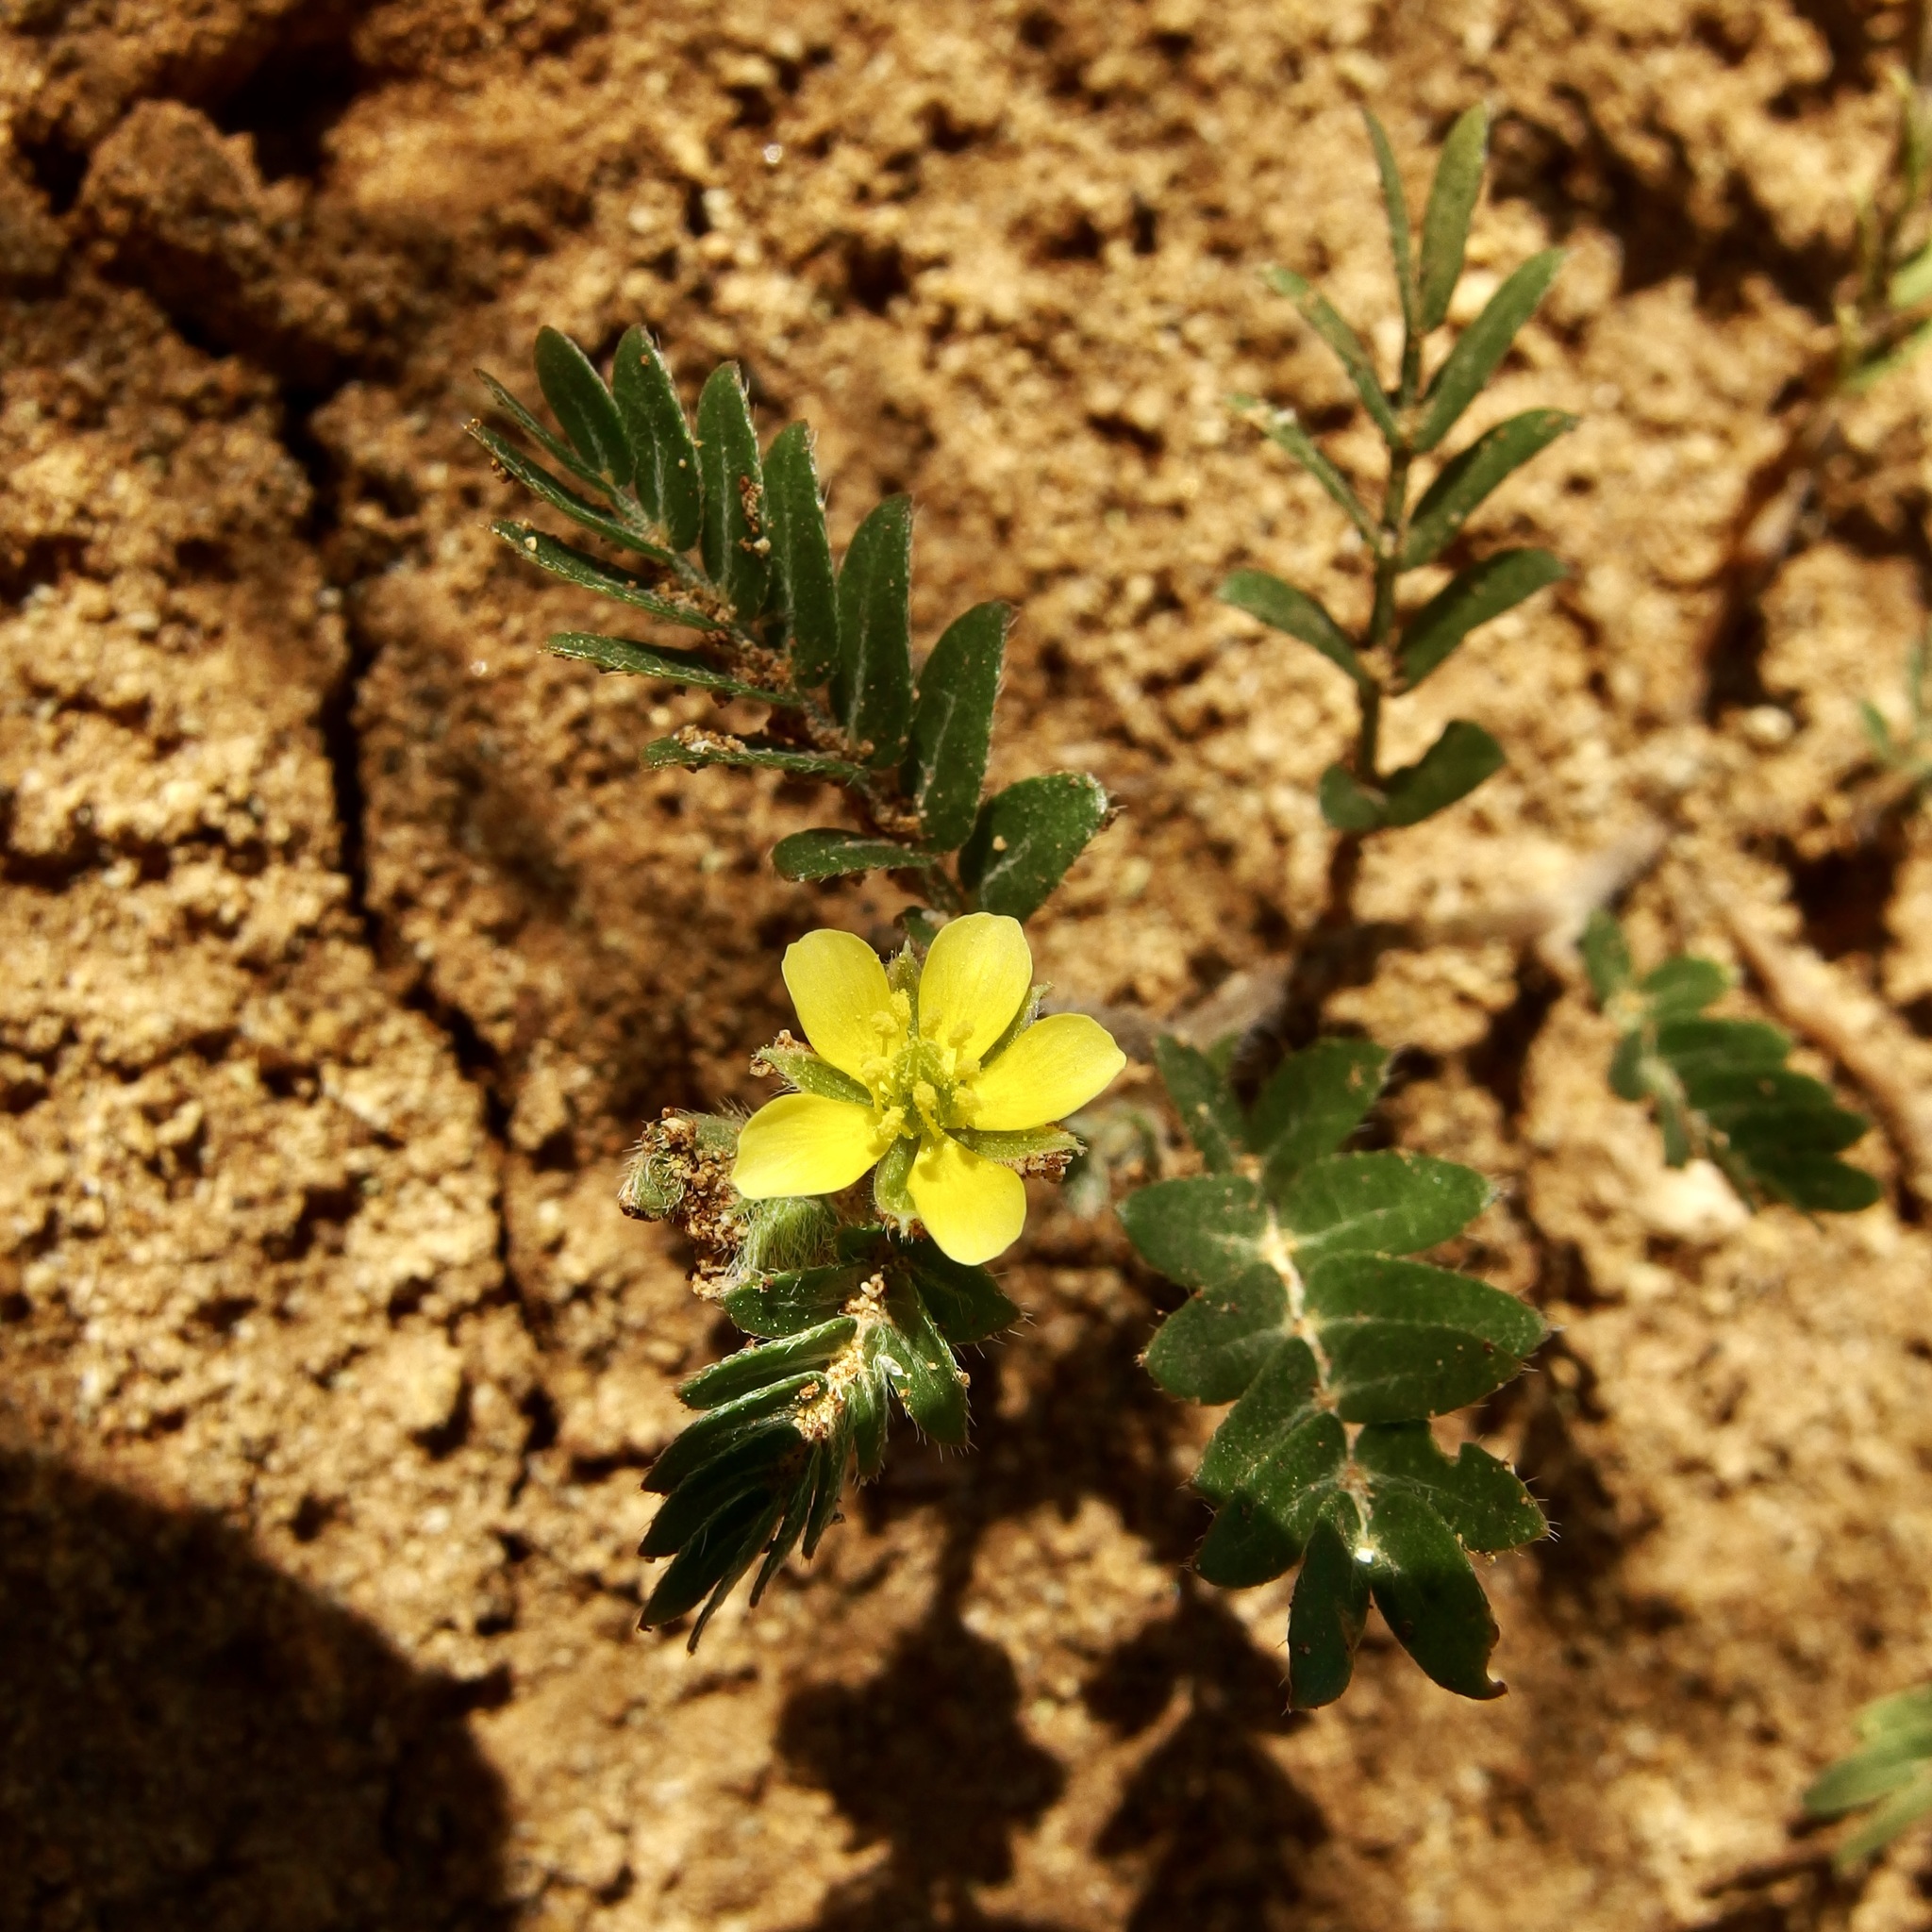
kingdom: Plantae
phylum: Tracheophyta
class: Magnoliopsida
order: Zygophyllales
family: Zygophyllaceae
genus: Tribulus
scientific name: Tribulus terrestris
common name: Puncturevine
